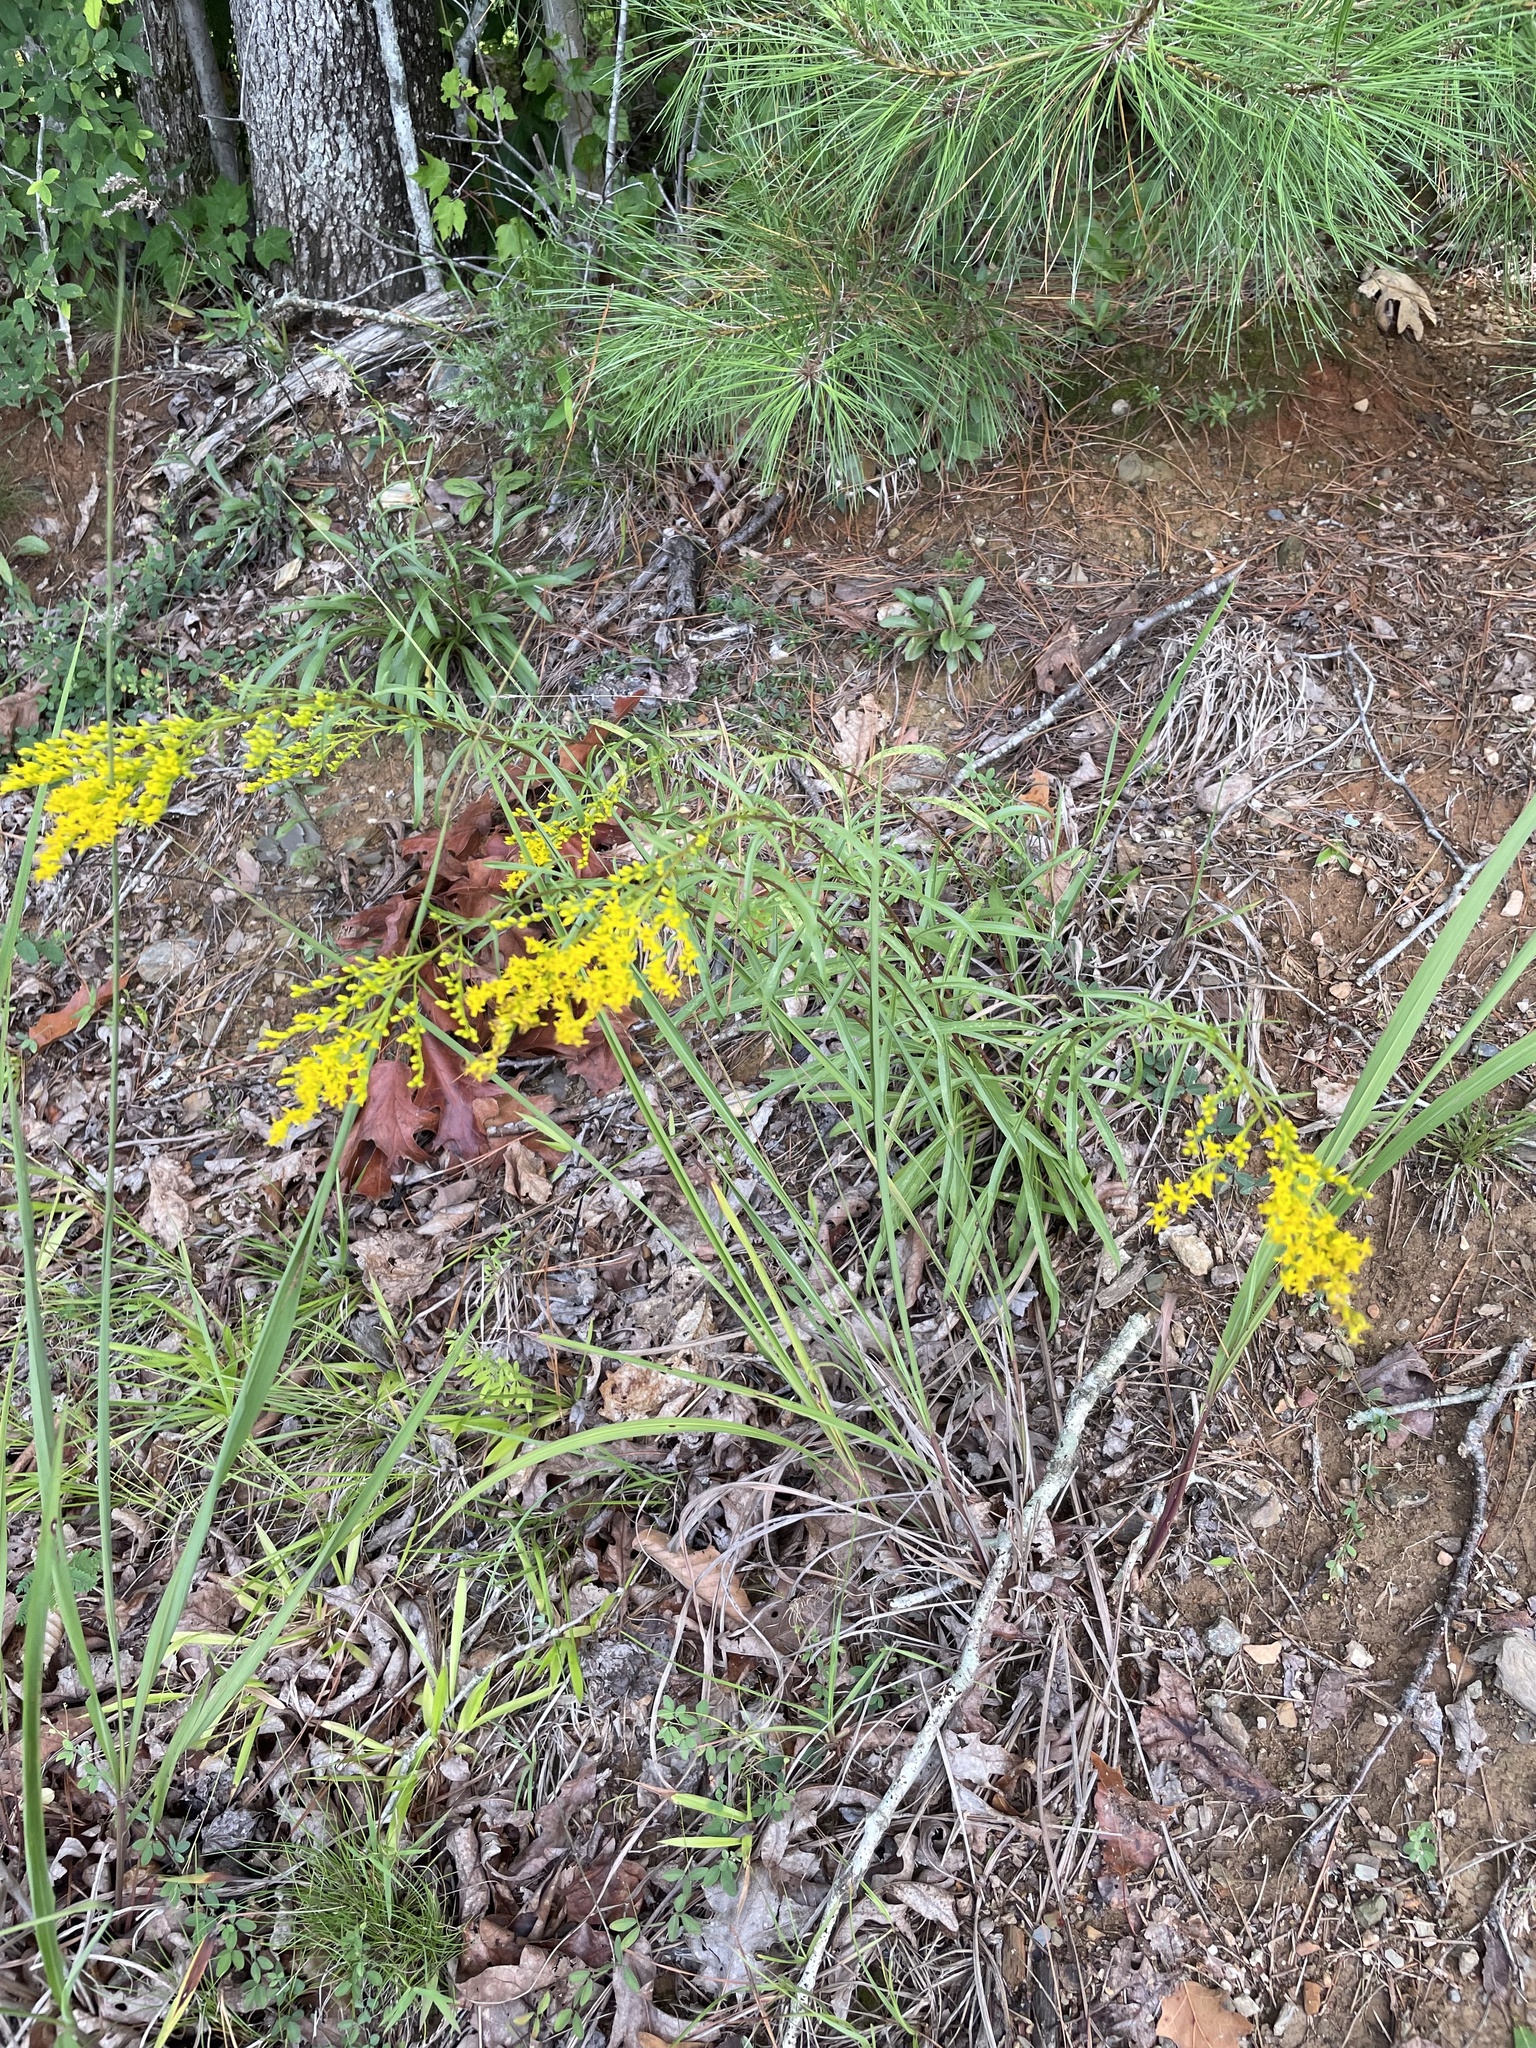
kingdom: Plantae
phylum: Tracheophyta
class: Magnoliopsida
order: Asterales
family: Asteraceae
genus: Solidago
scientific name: Solidago pinetorum
